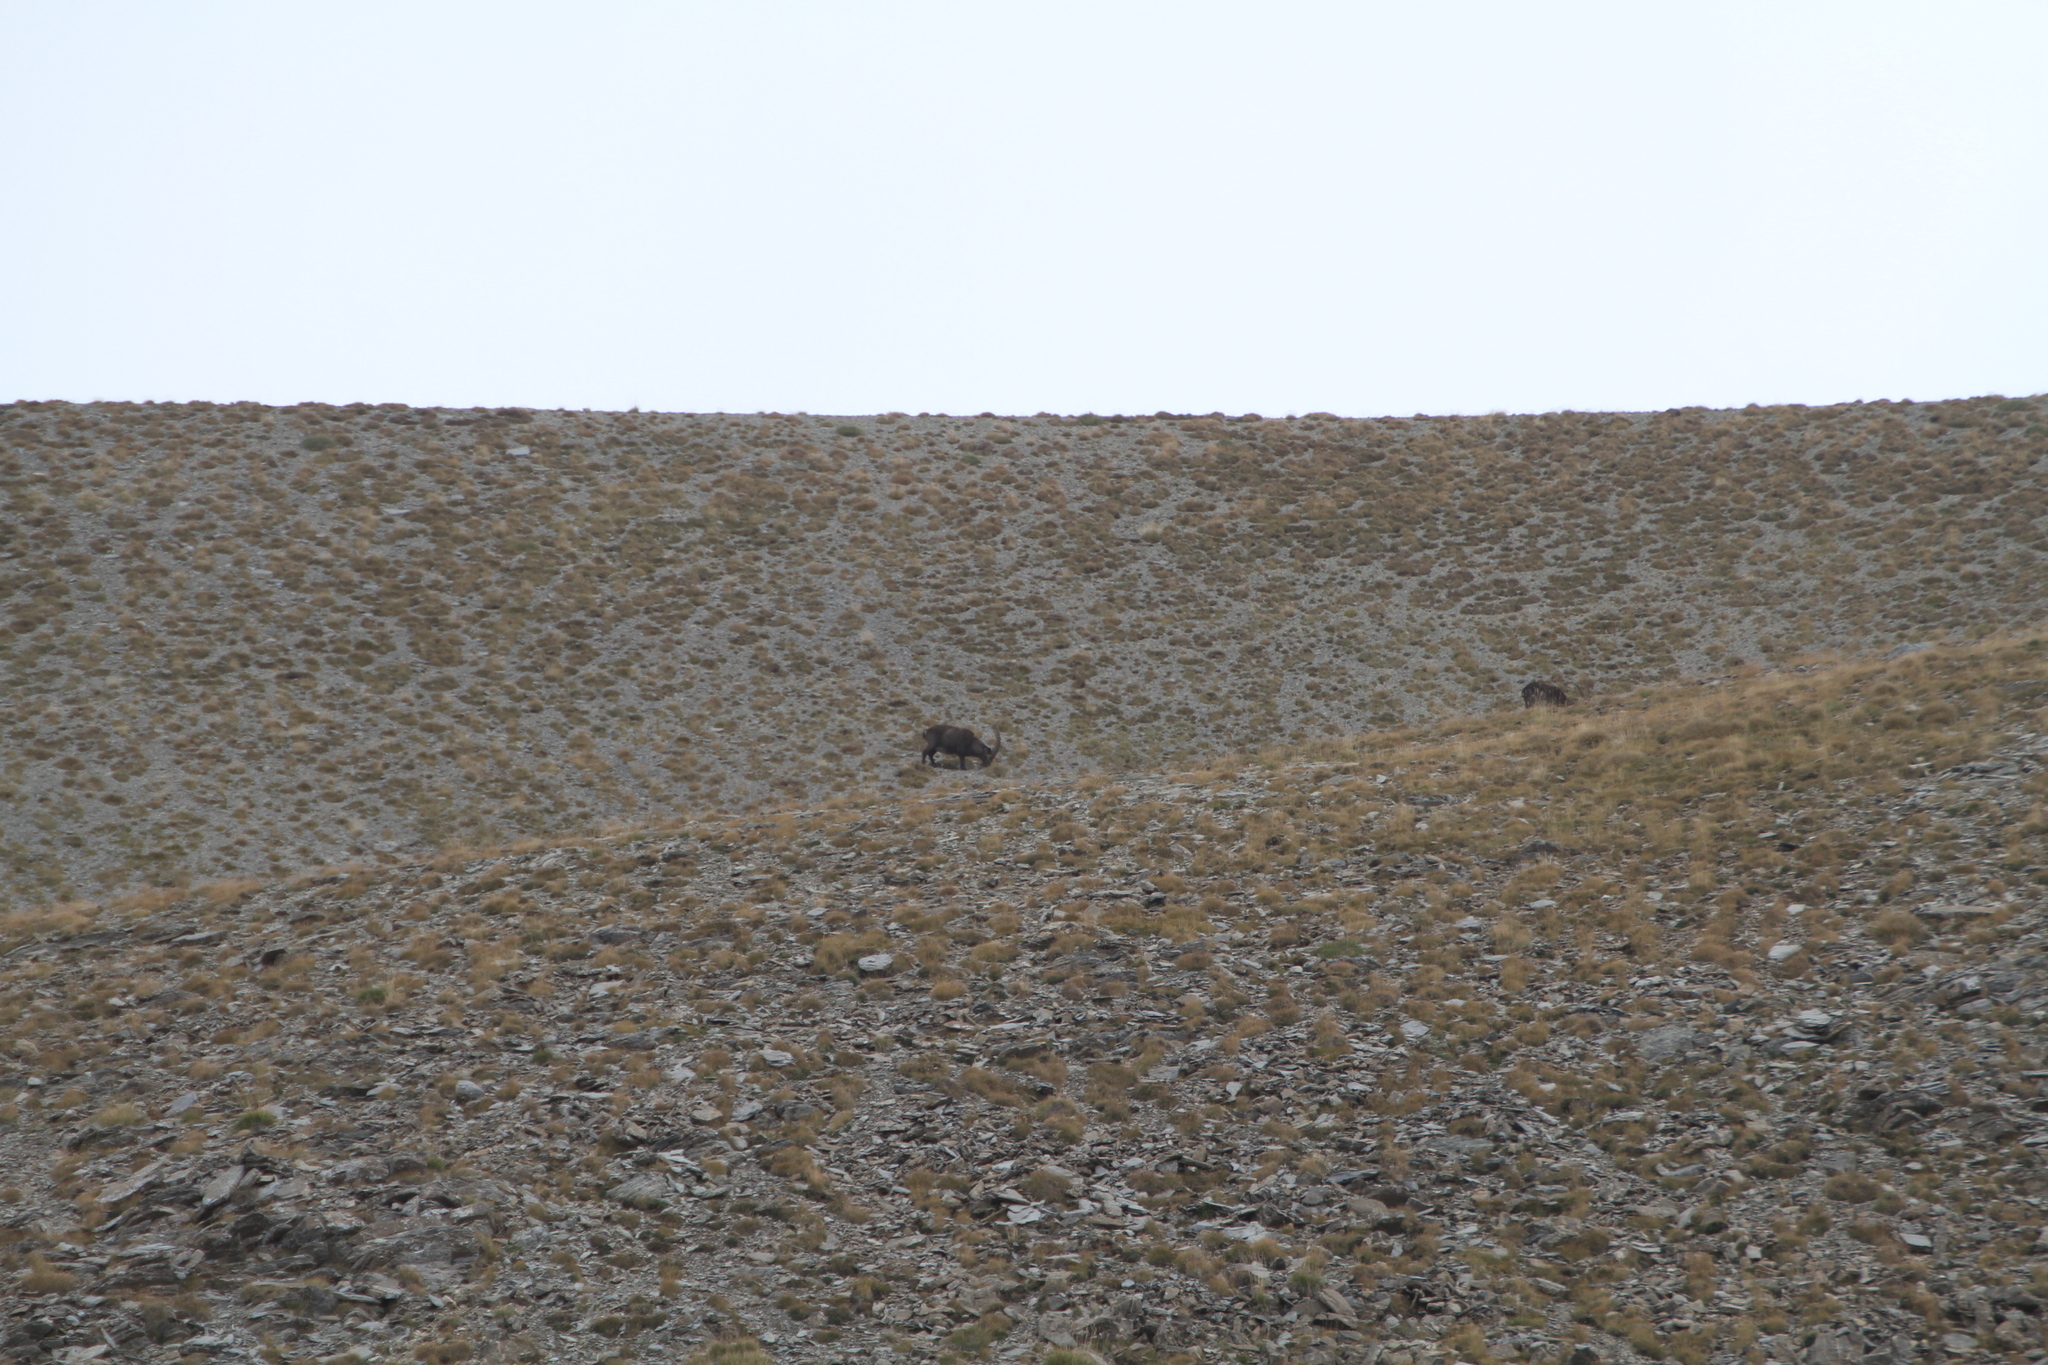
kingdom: Animalia
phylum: Chordata
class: Mammalia
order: Artiodactyla
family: Bovidae
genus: Capra
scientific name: Capra ibex
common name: Alpine ibex
